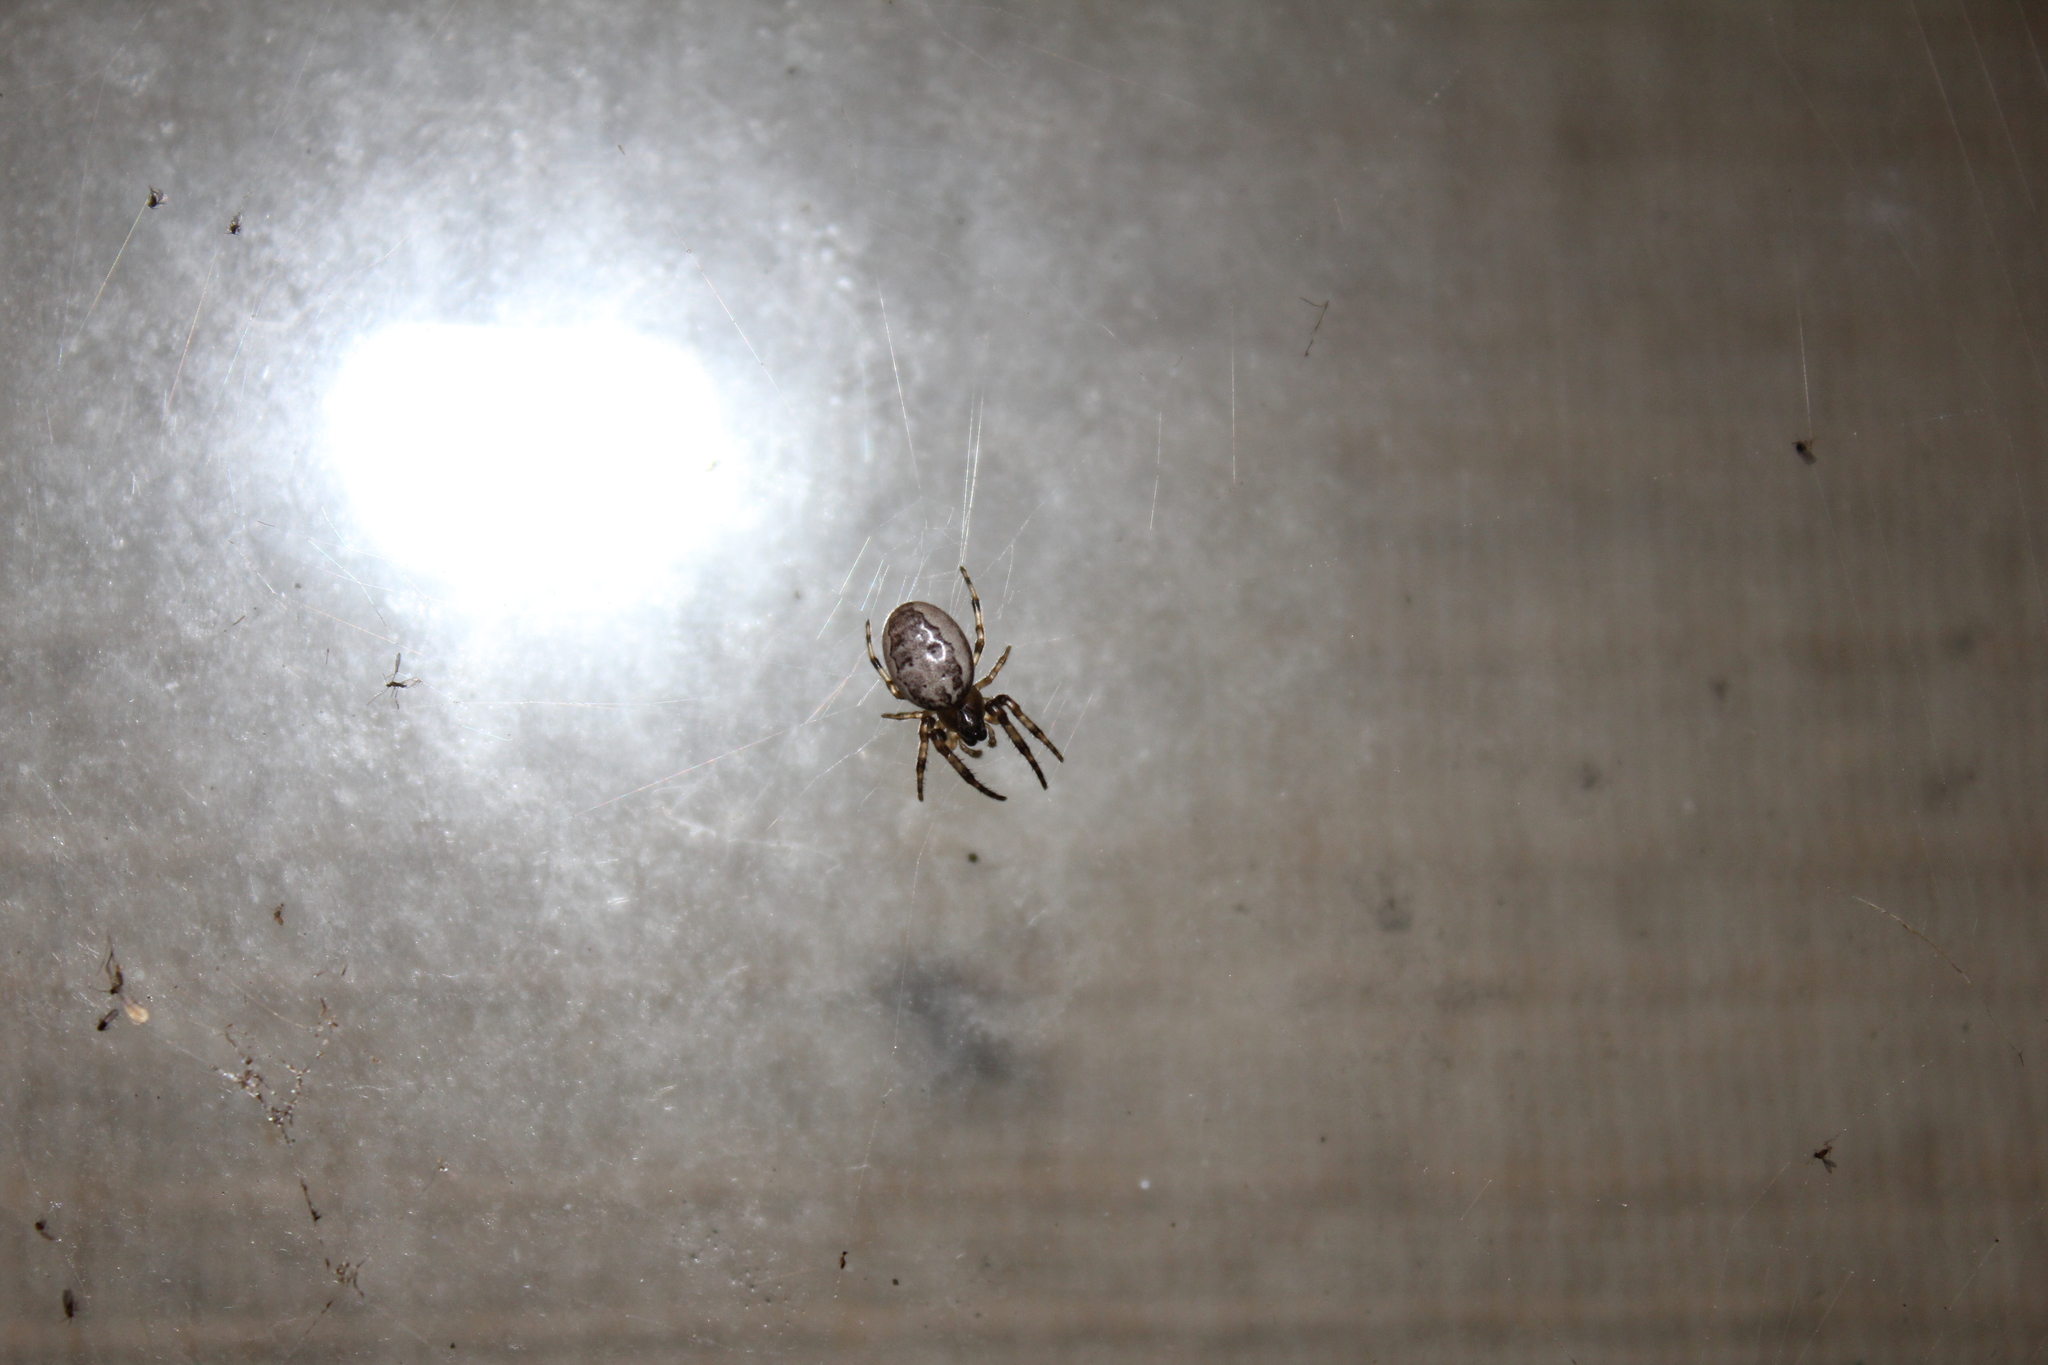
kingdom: Animalia
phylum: Arthropoda
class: Arachnida
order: Araneae
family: Araneidae
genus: Larinioides
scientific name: Larinioides cornutus
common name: Furrow orbweaver
